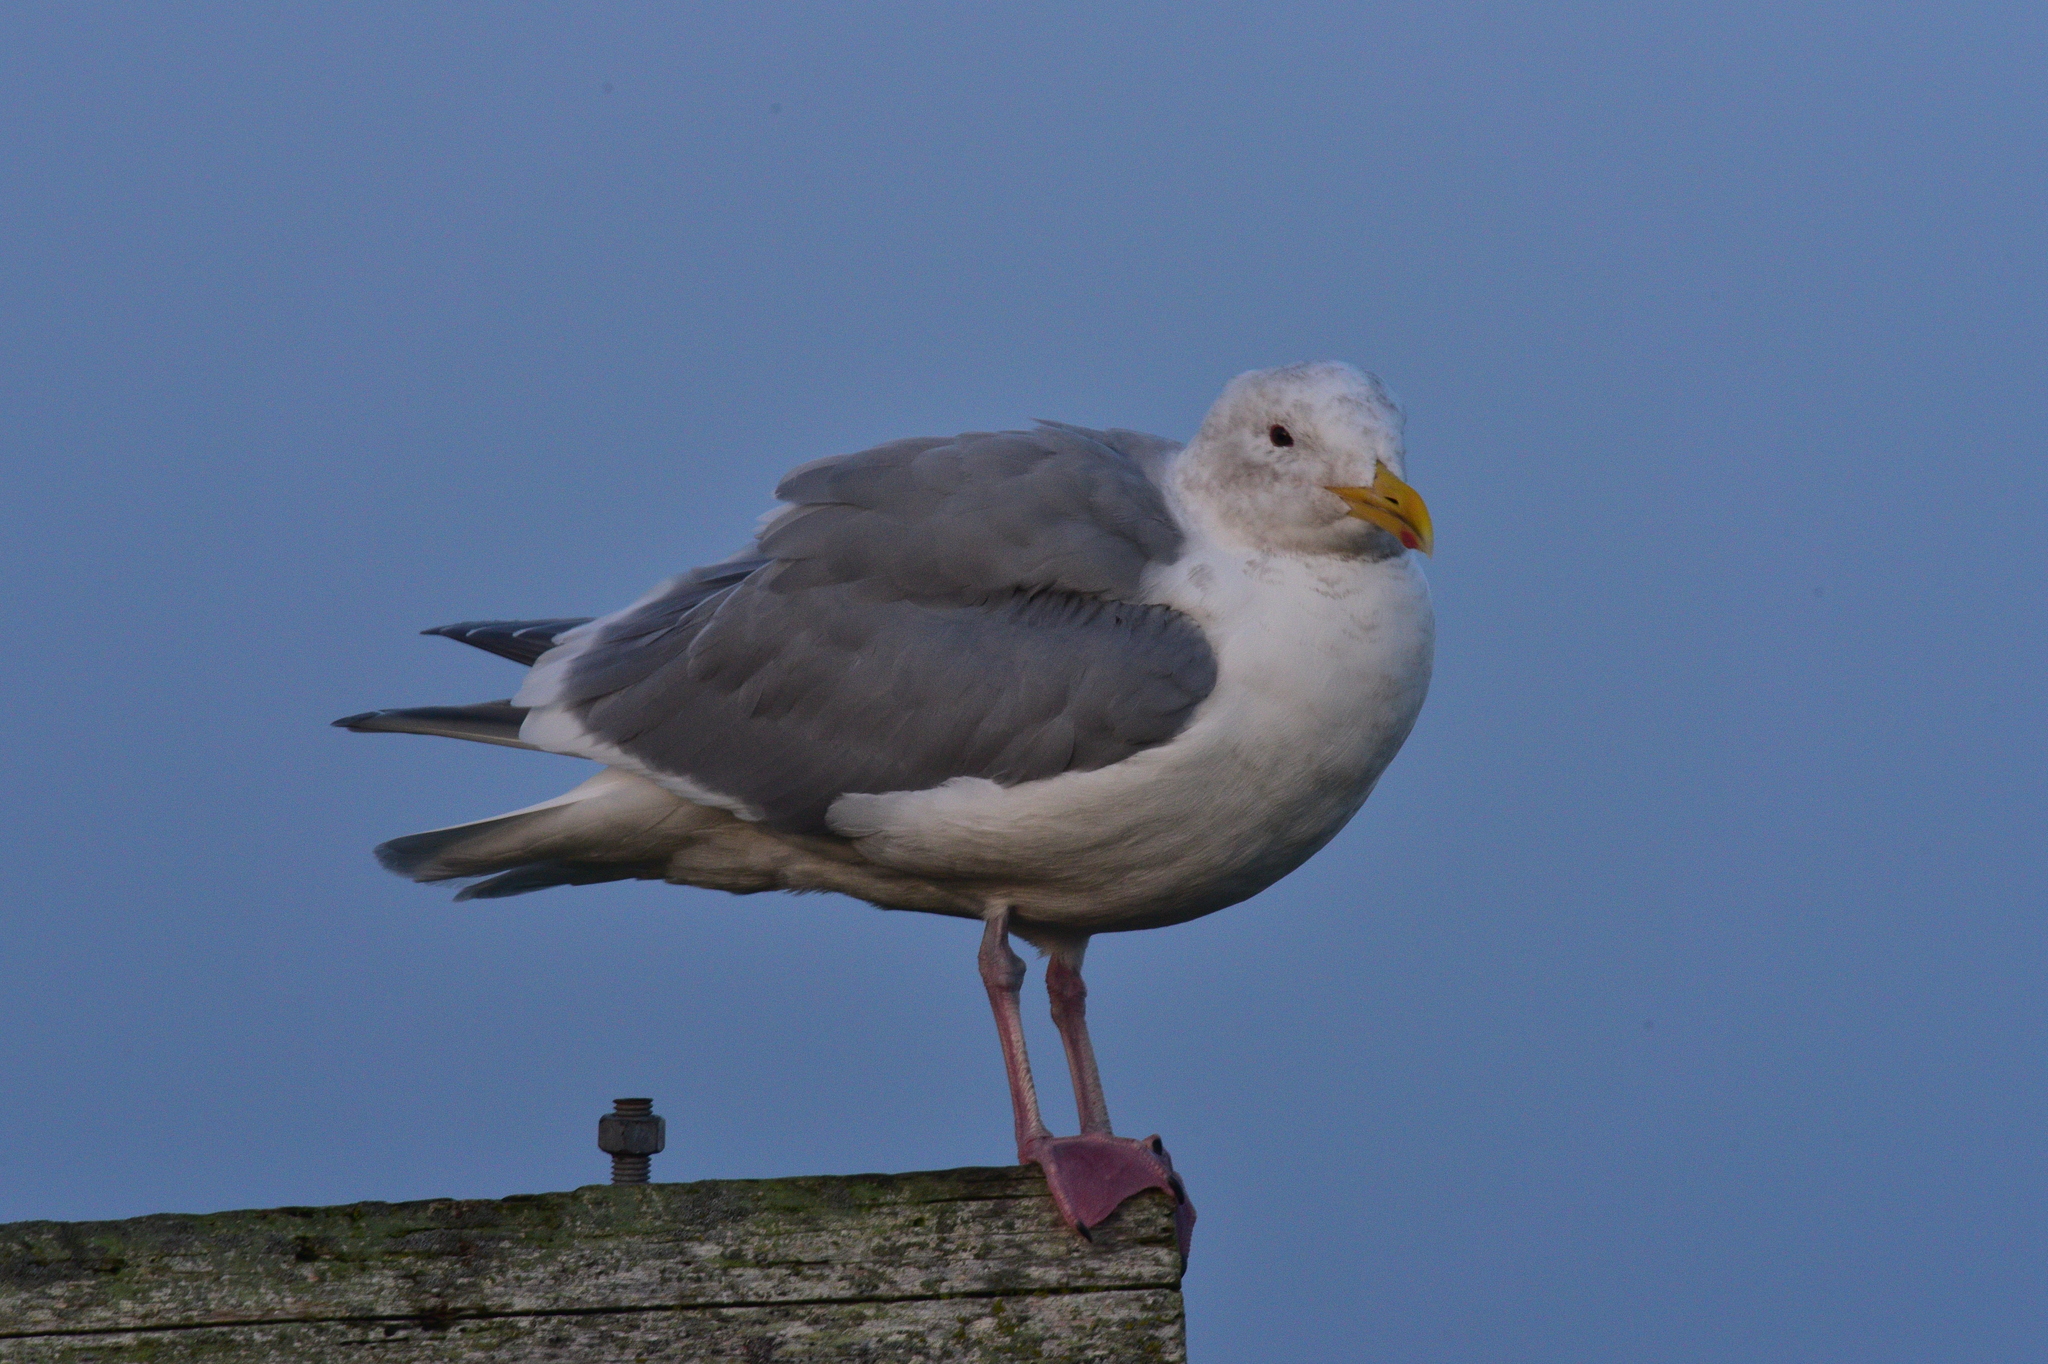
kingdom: Animalia
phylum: Chordata
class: Aves
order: Charadriiformes
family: Laridae
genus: Larus
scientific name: Larus
